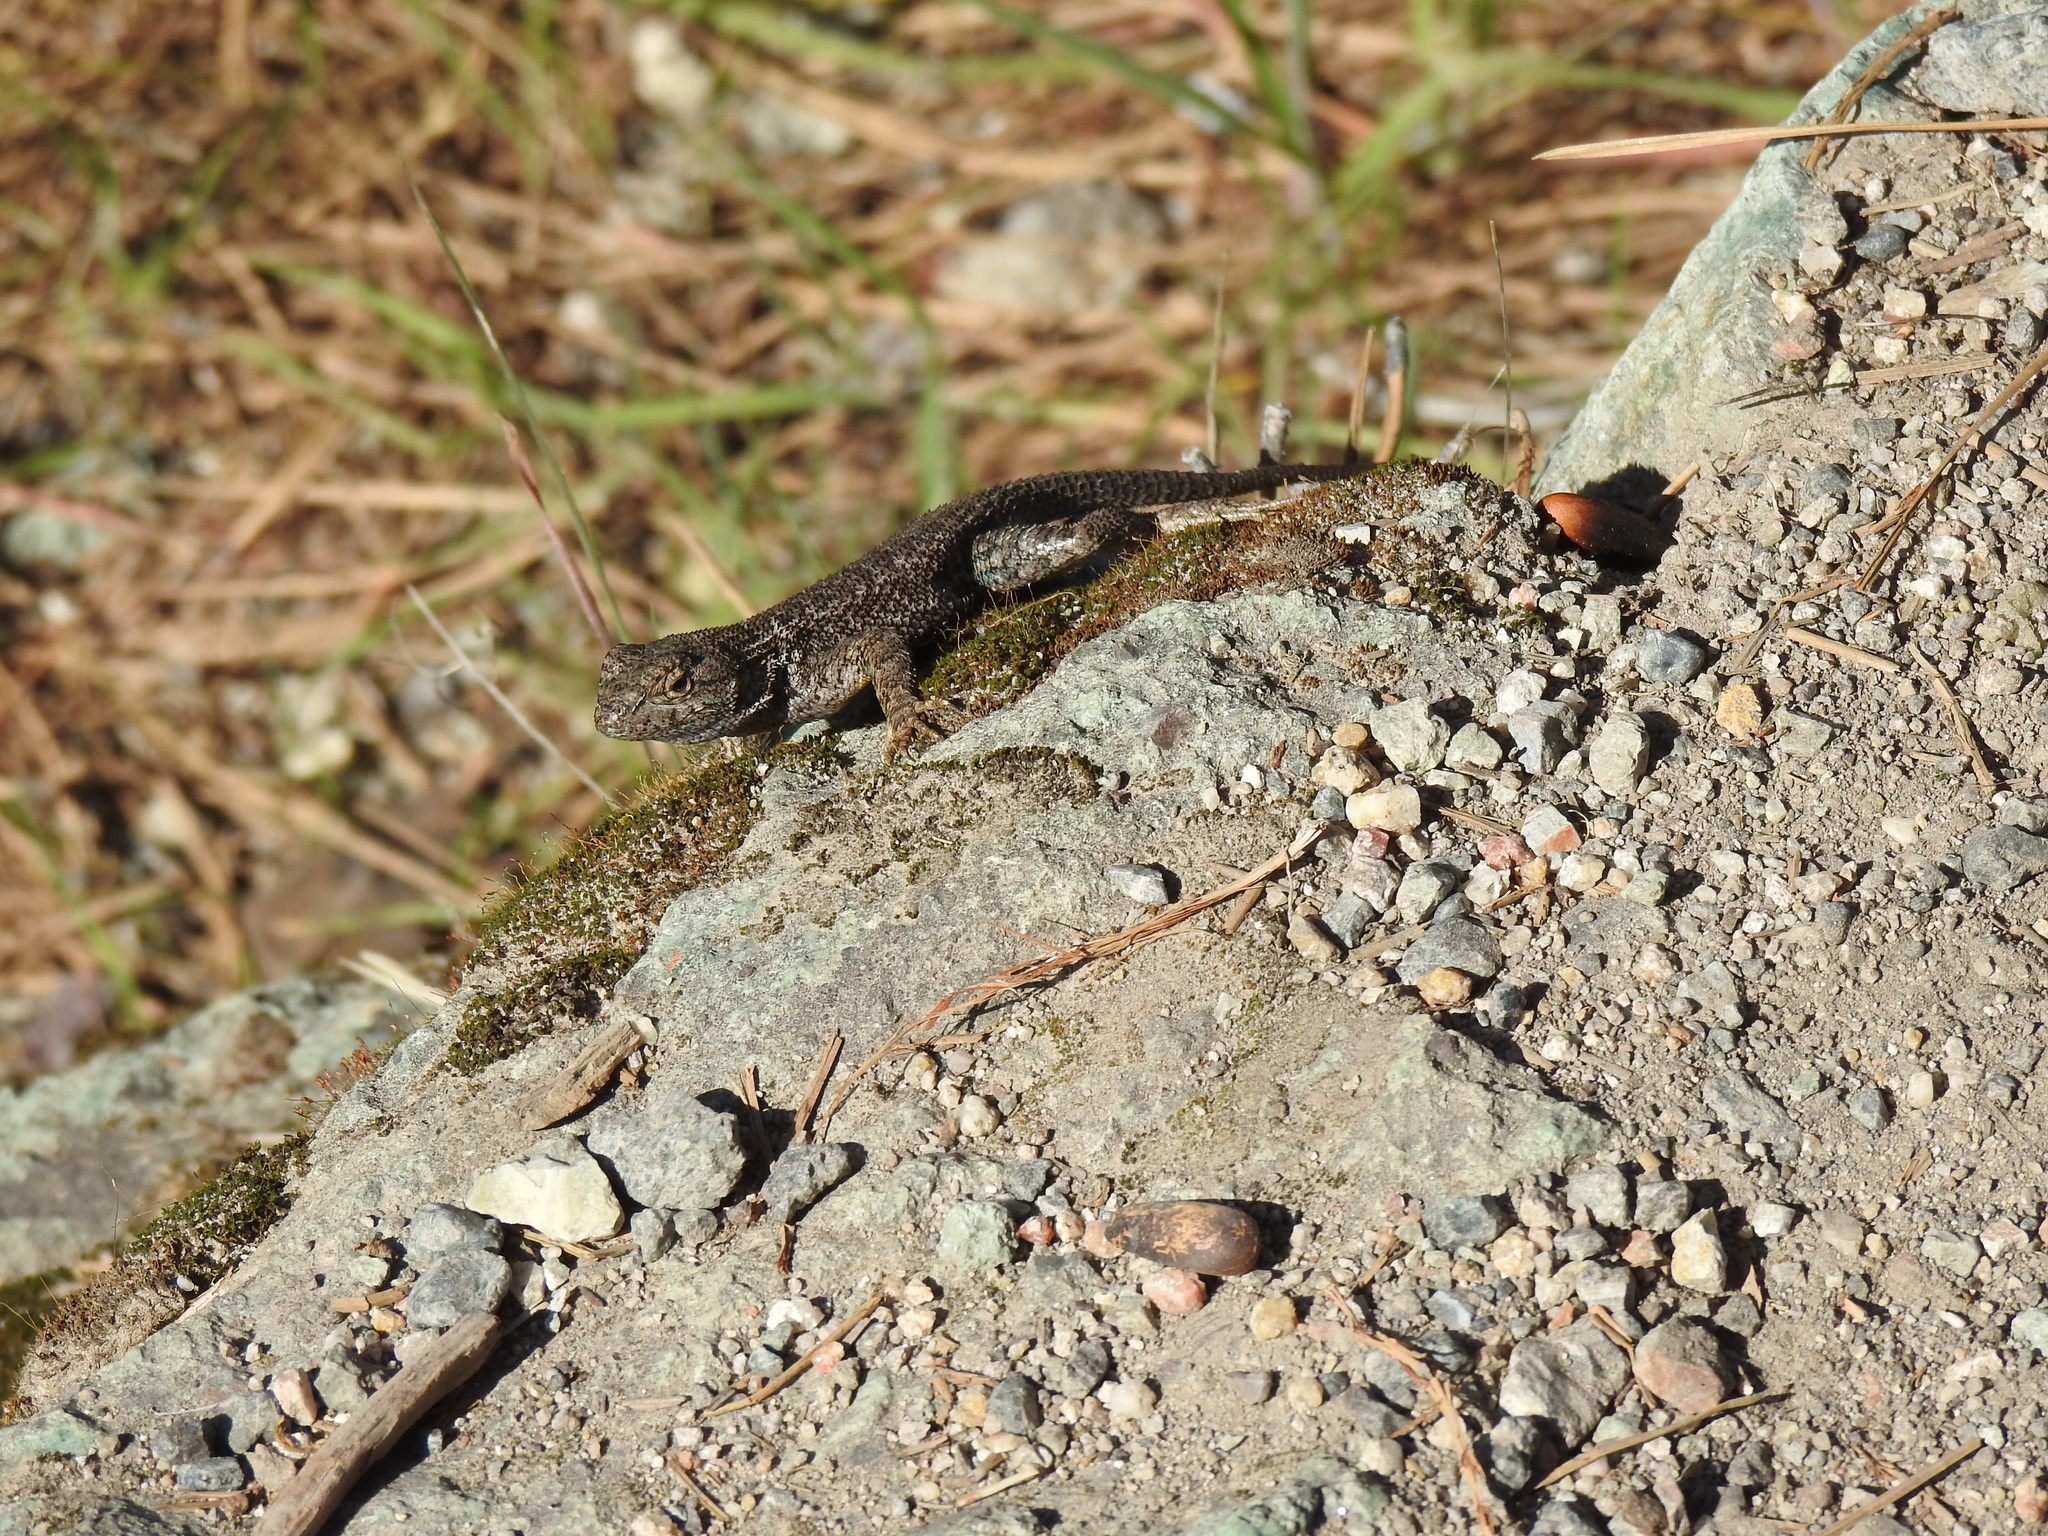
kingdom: Animalia
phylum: Chordata
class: Squamata
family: Phrynosomatidae
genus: Sceloporus
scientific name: Sceloporus occidentalis
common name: Western fence lizard
